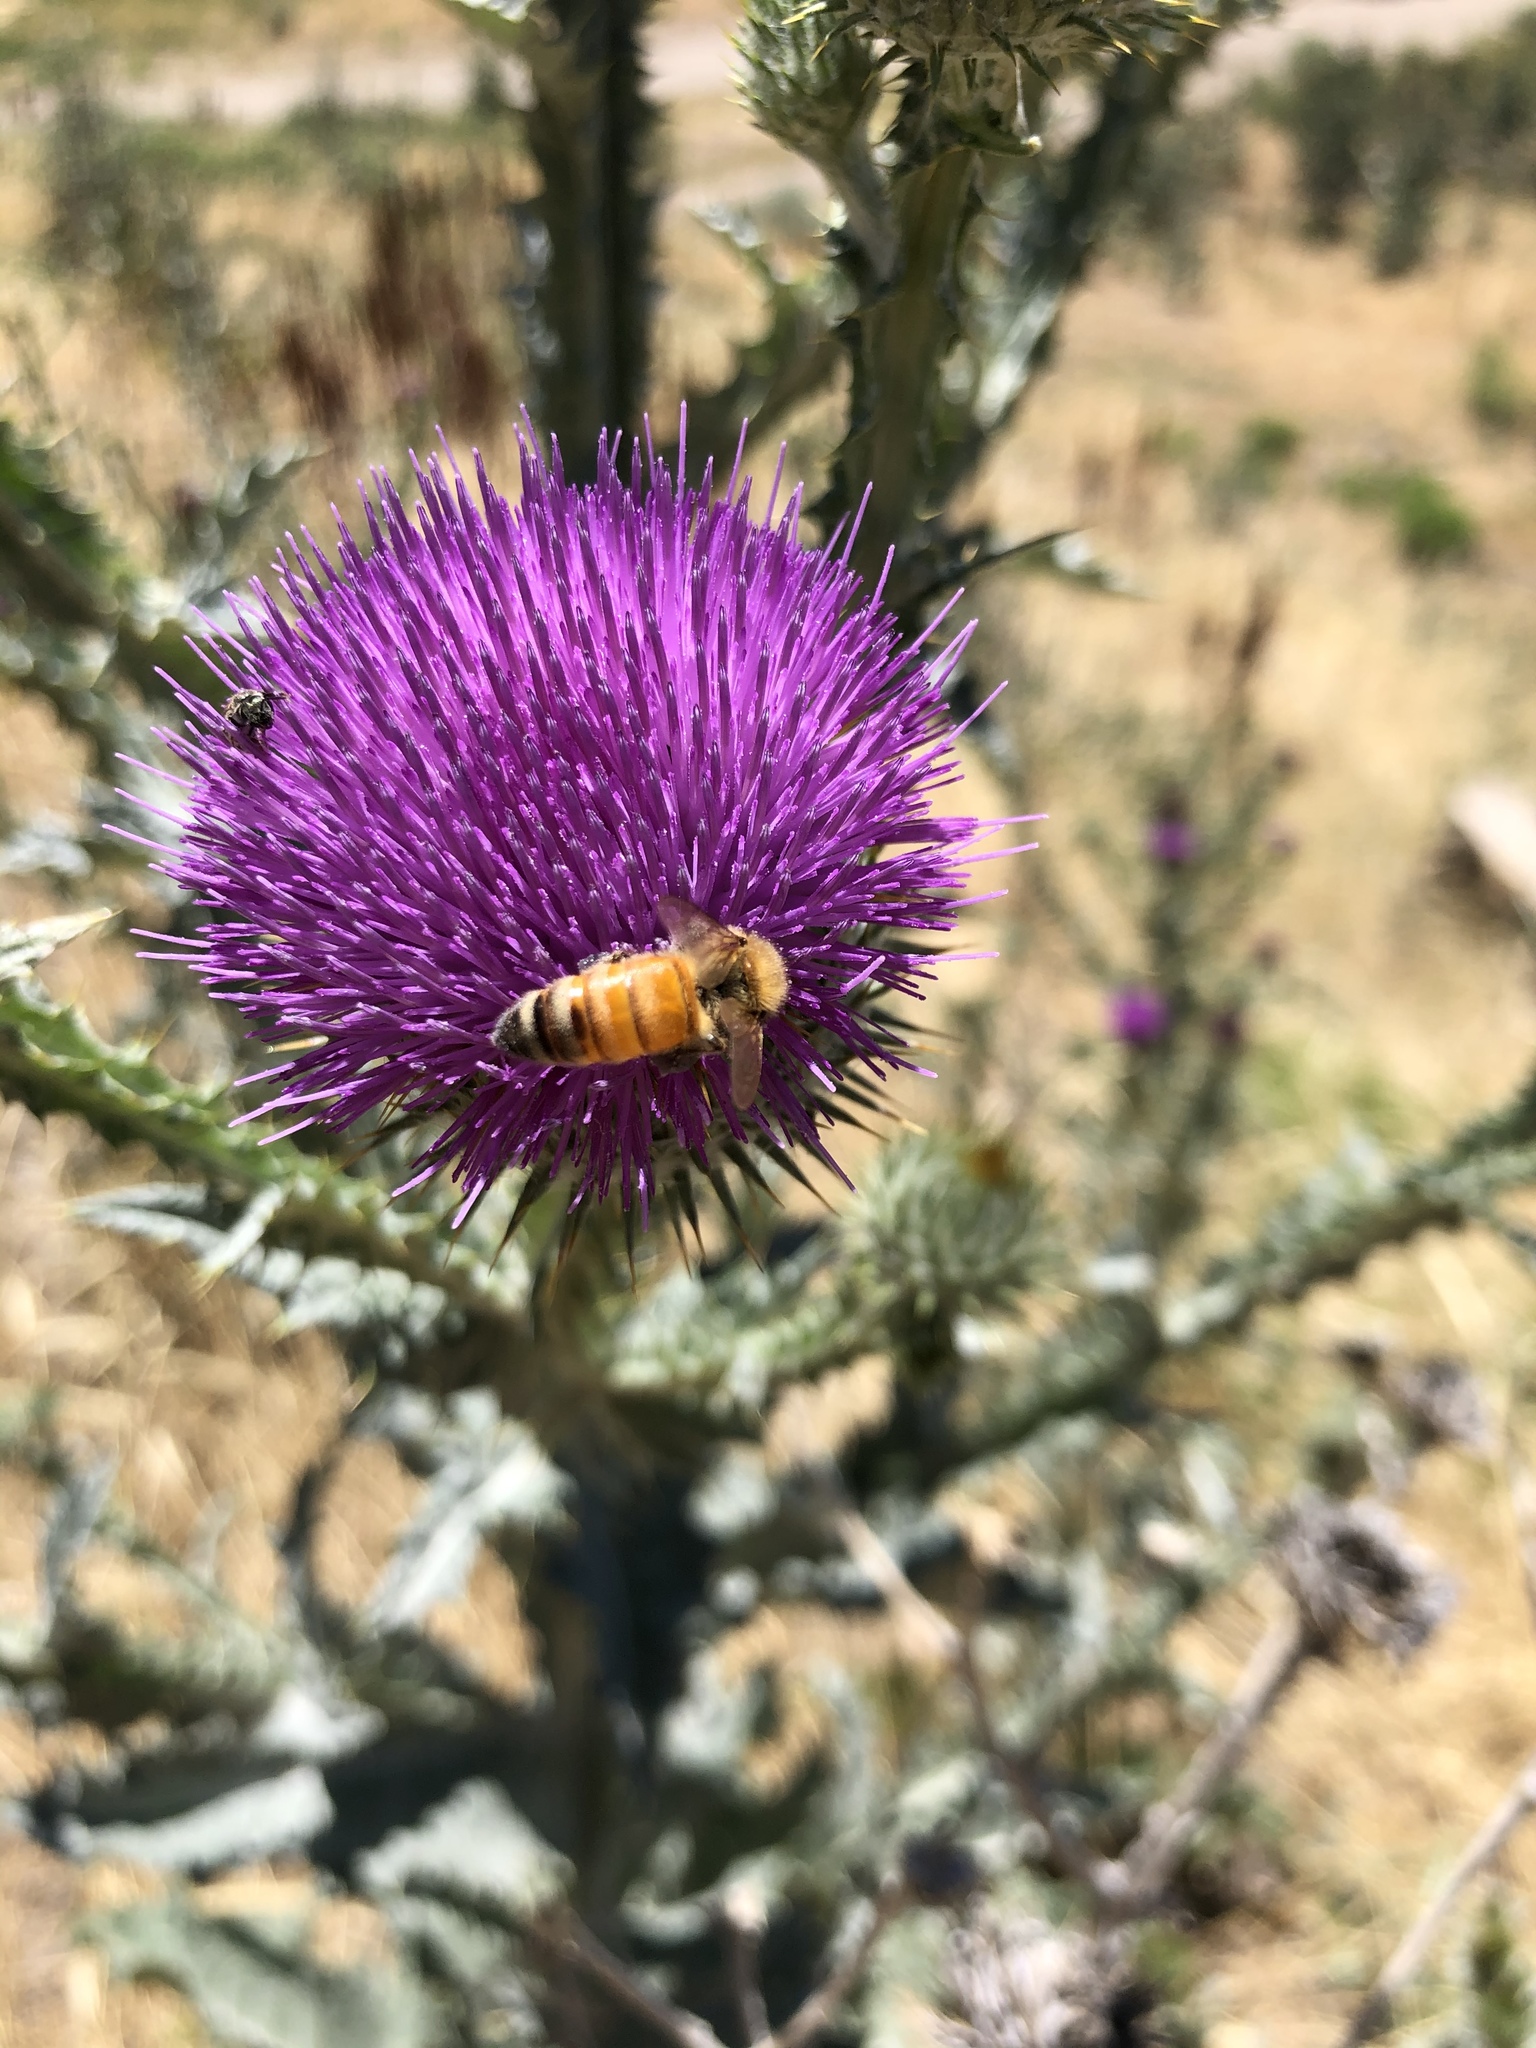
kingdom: Animalia
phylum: Arthropoda
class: Insecta
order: Hymenoptera
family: Apidae
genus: Apis
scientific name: Apis mellifera
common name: Honey bee
